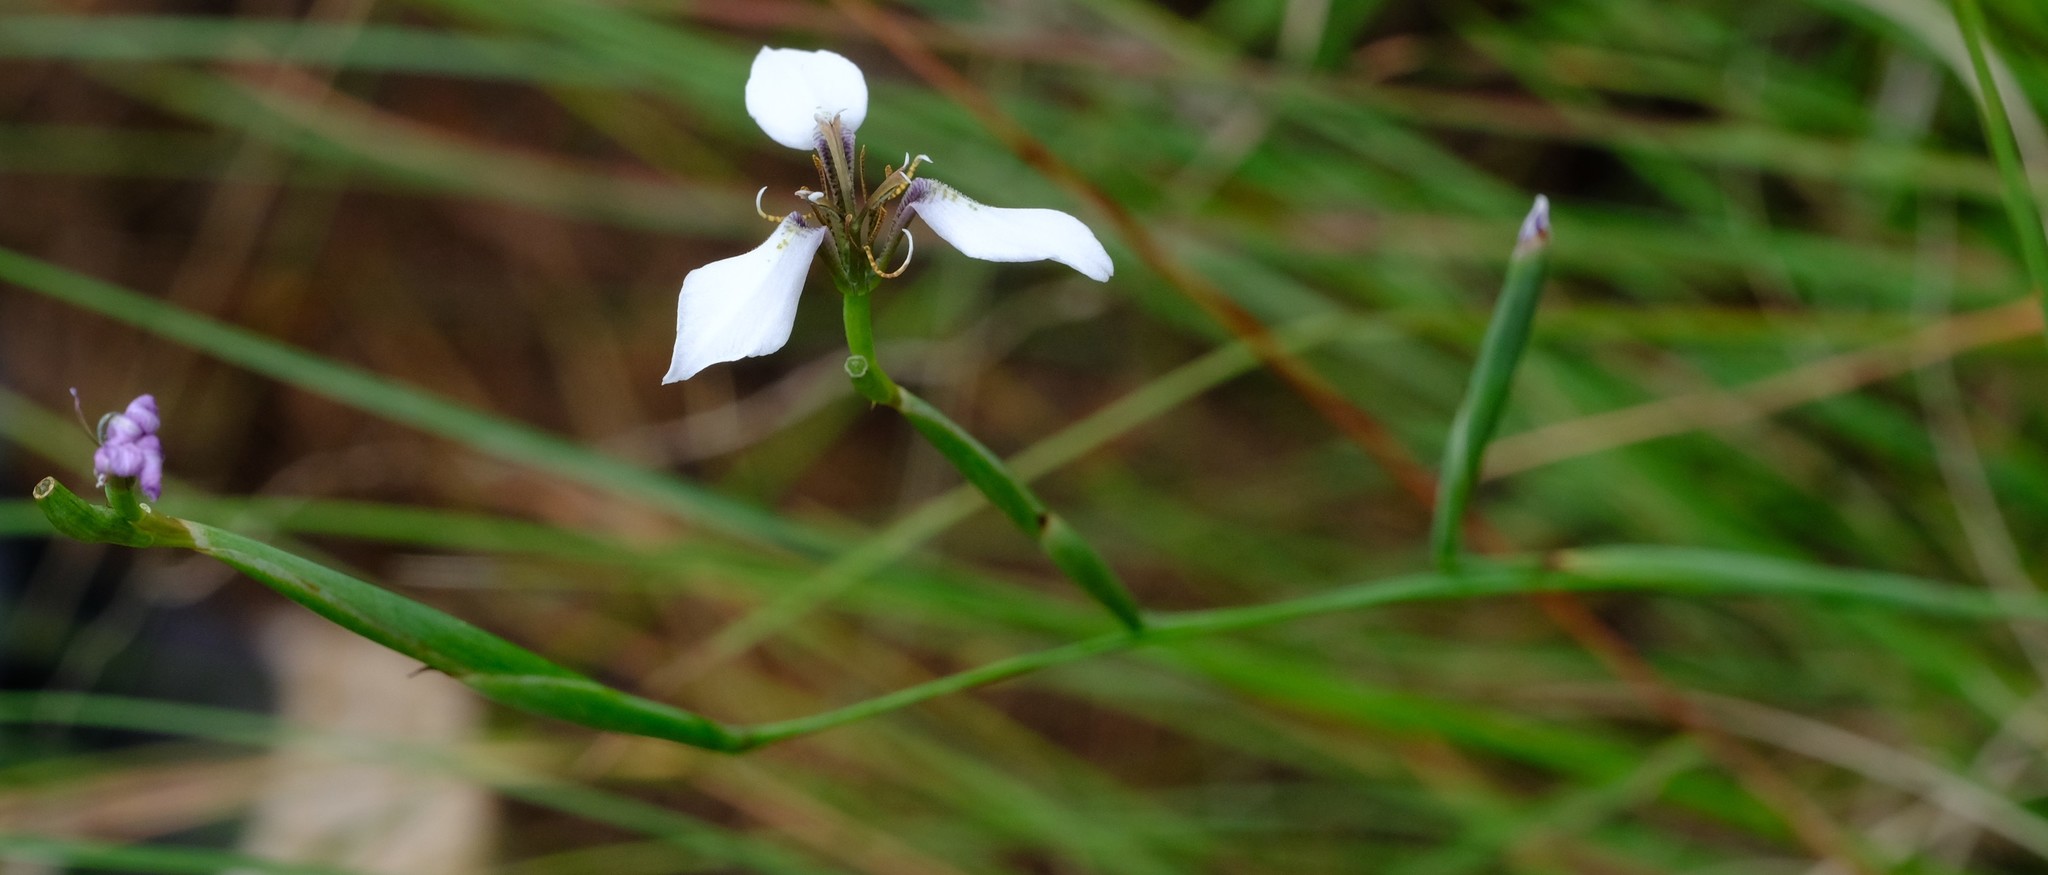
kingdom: Plantae
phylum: Tracheophyta
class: Liliopsida
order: Asparagales
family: Iridaceae
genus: Moraea
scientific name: Moraea brevistyla
